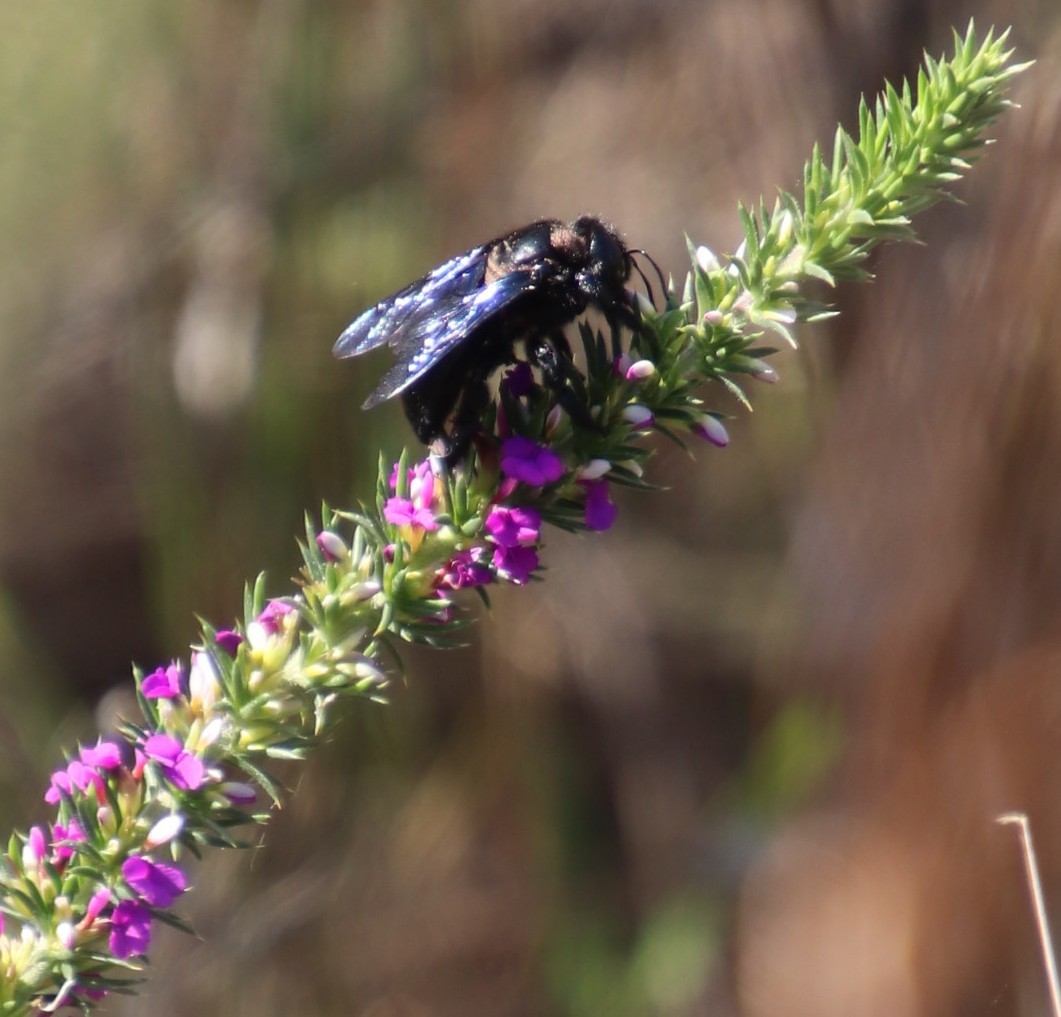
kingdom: Plantae
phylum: Tracheophyta
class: Magnoliopsida
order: Fabales
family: Polygalaceae
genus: Muraltia
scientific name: Muraltia heisteria
